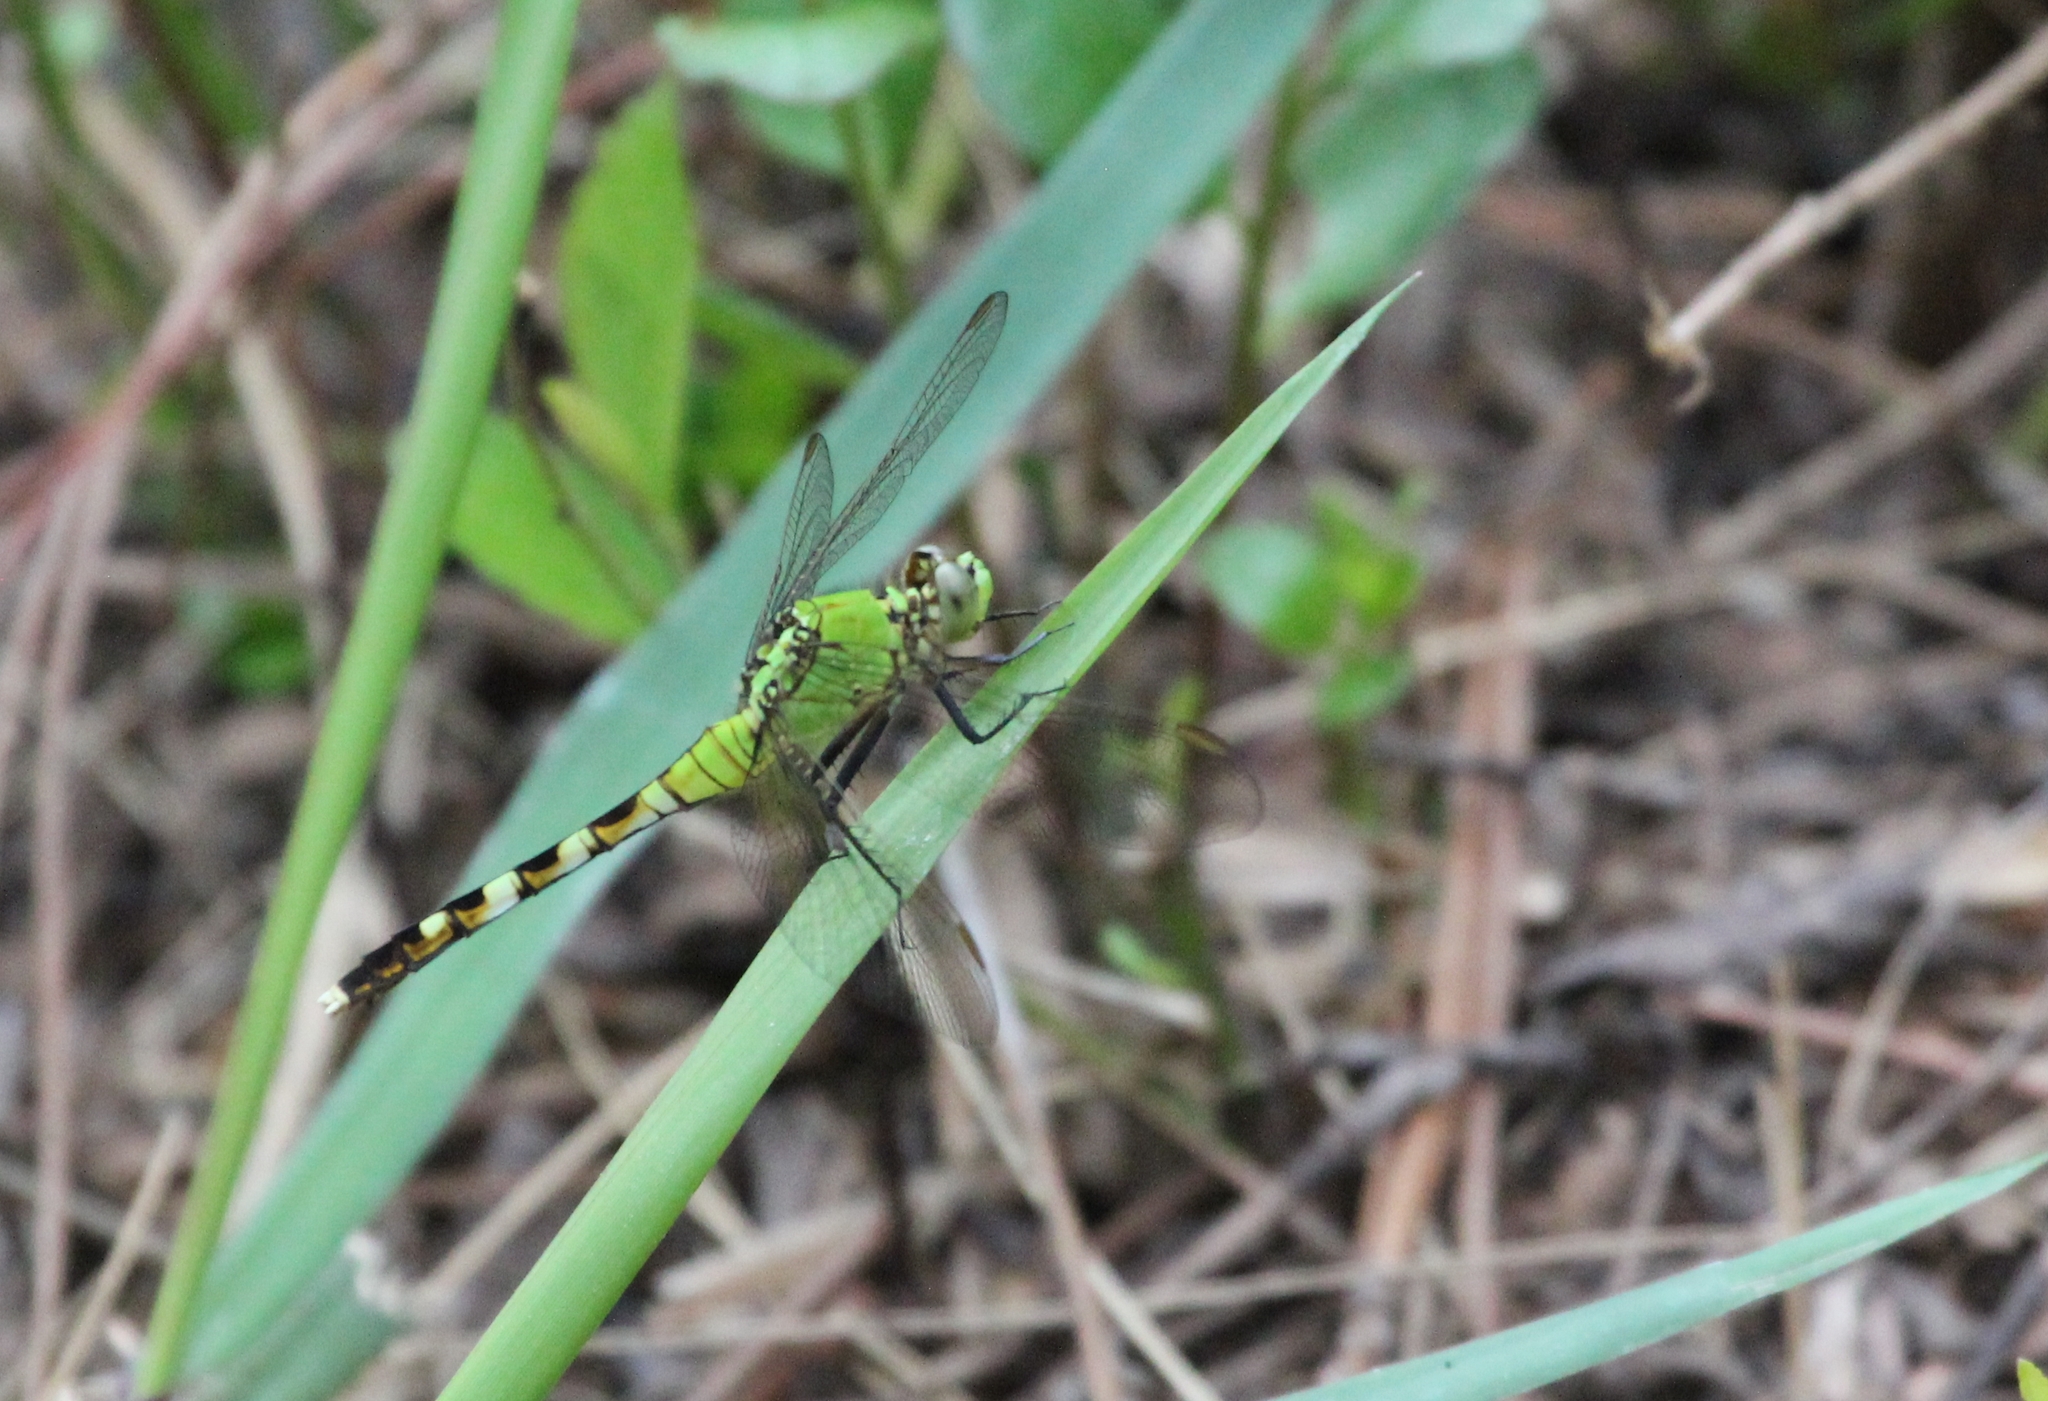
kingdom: Animalia
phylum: Arthropoda
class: Insecta
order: Odonata
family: Libellulidae
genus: Erythemis
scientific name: Erythemis simplicicollis
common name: Eastern pondhawk
